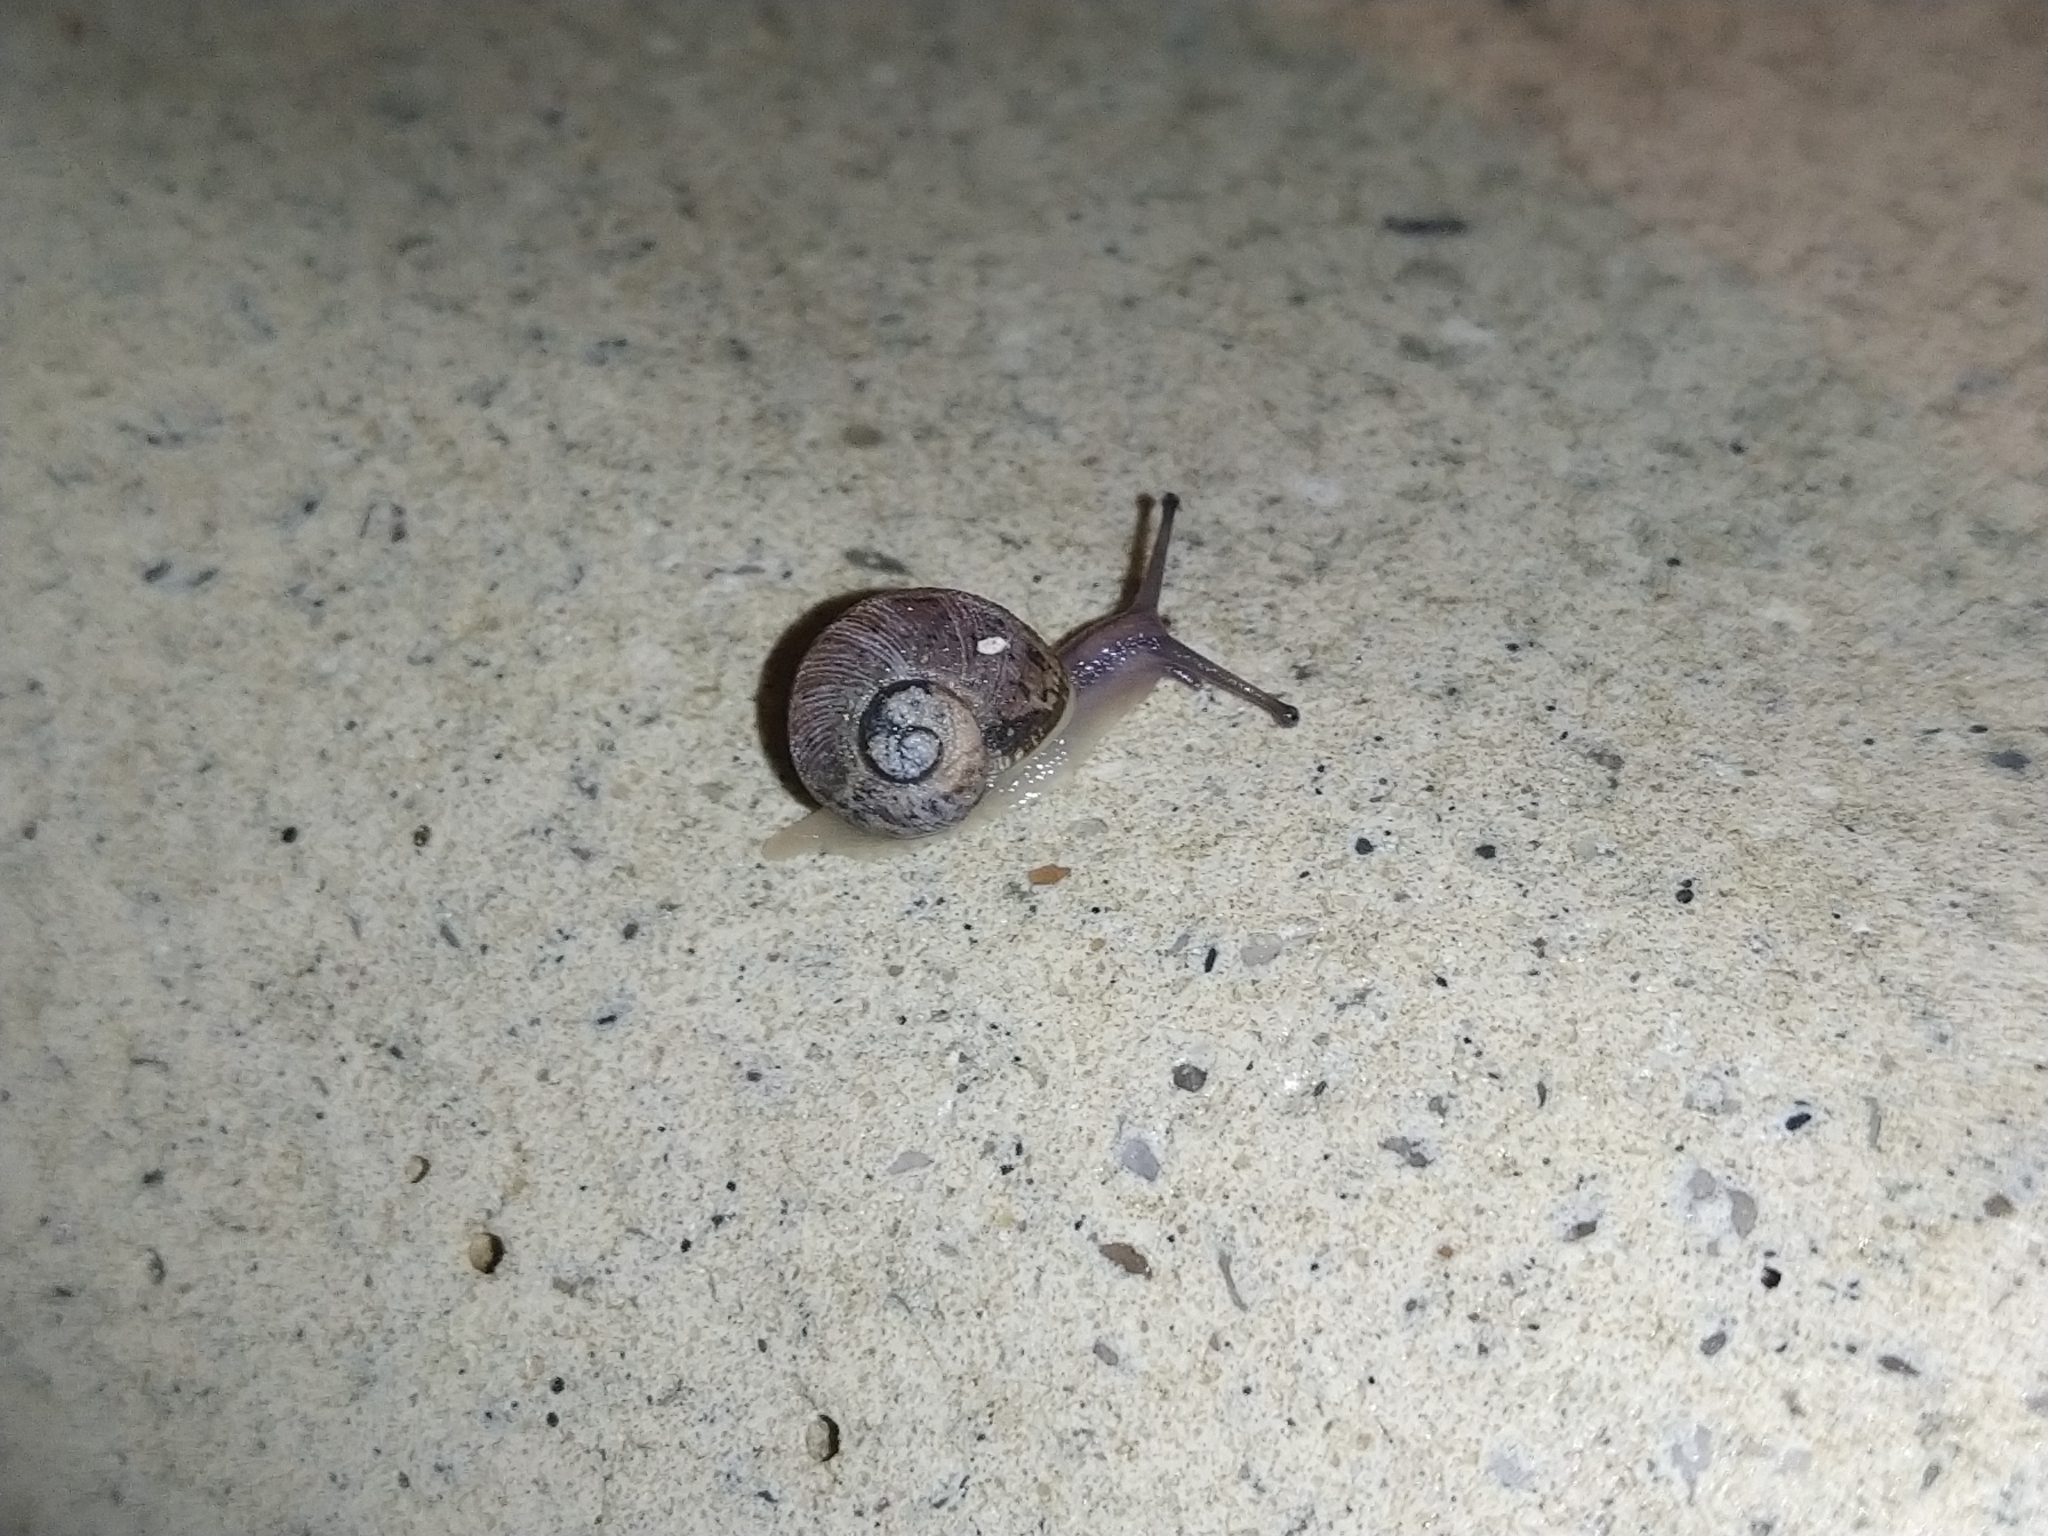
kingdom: Animalia
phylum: Mollusca
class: Gastropoda
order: Stylommatophora
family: Helicidae
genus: Cornu
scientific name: Cornu aspersum
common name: Brown garden snail
